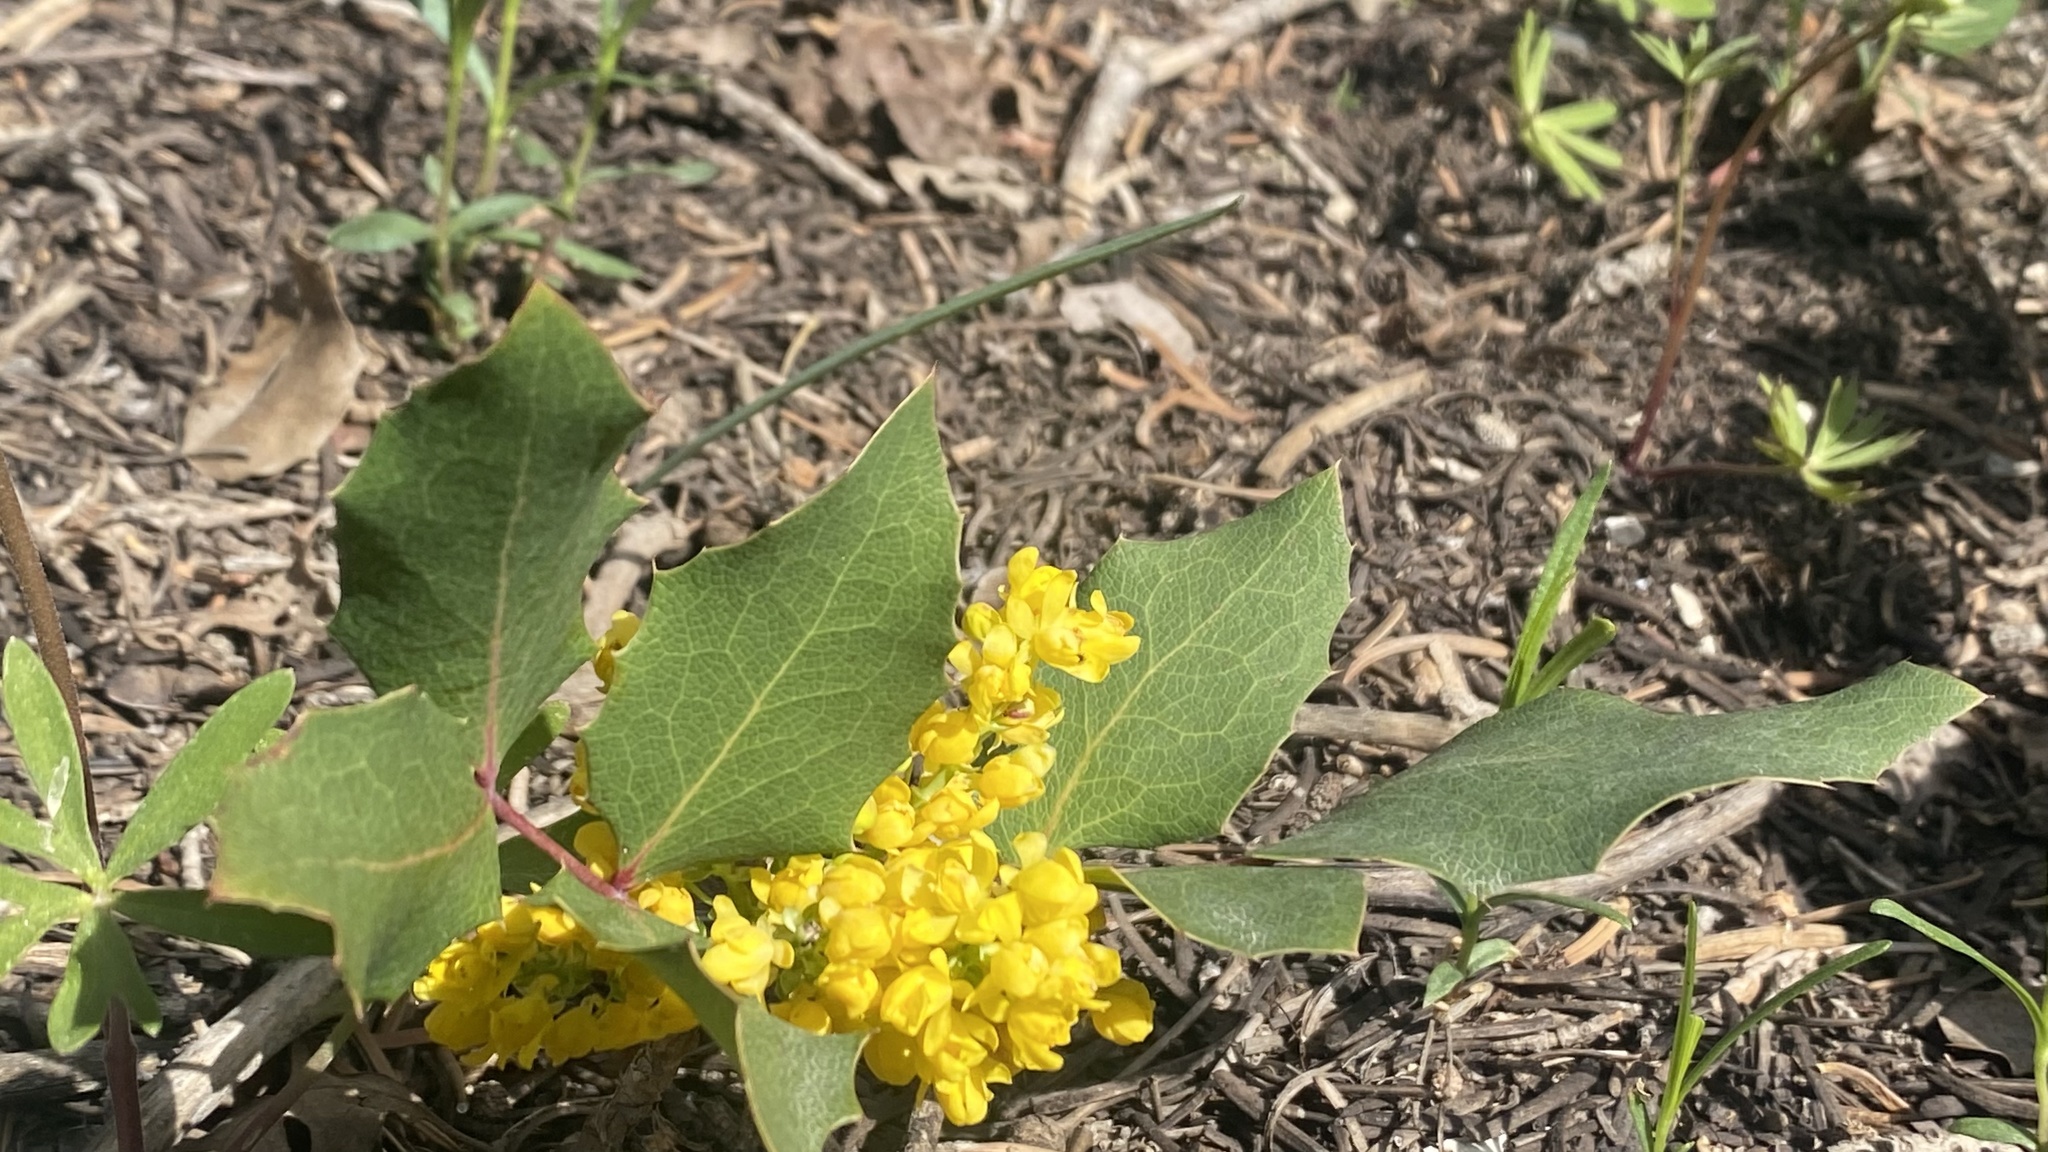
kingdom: Plantae
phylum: Tracheophyta
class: Magnoliopsida
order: Ranunculales
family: Berberidaceae
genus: Mahonia
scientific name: Mahonia aquifolium
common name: Oregon-grape
